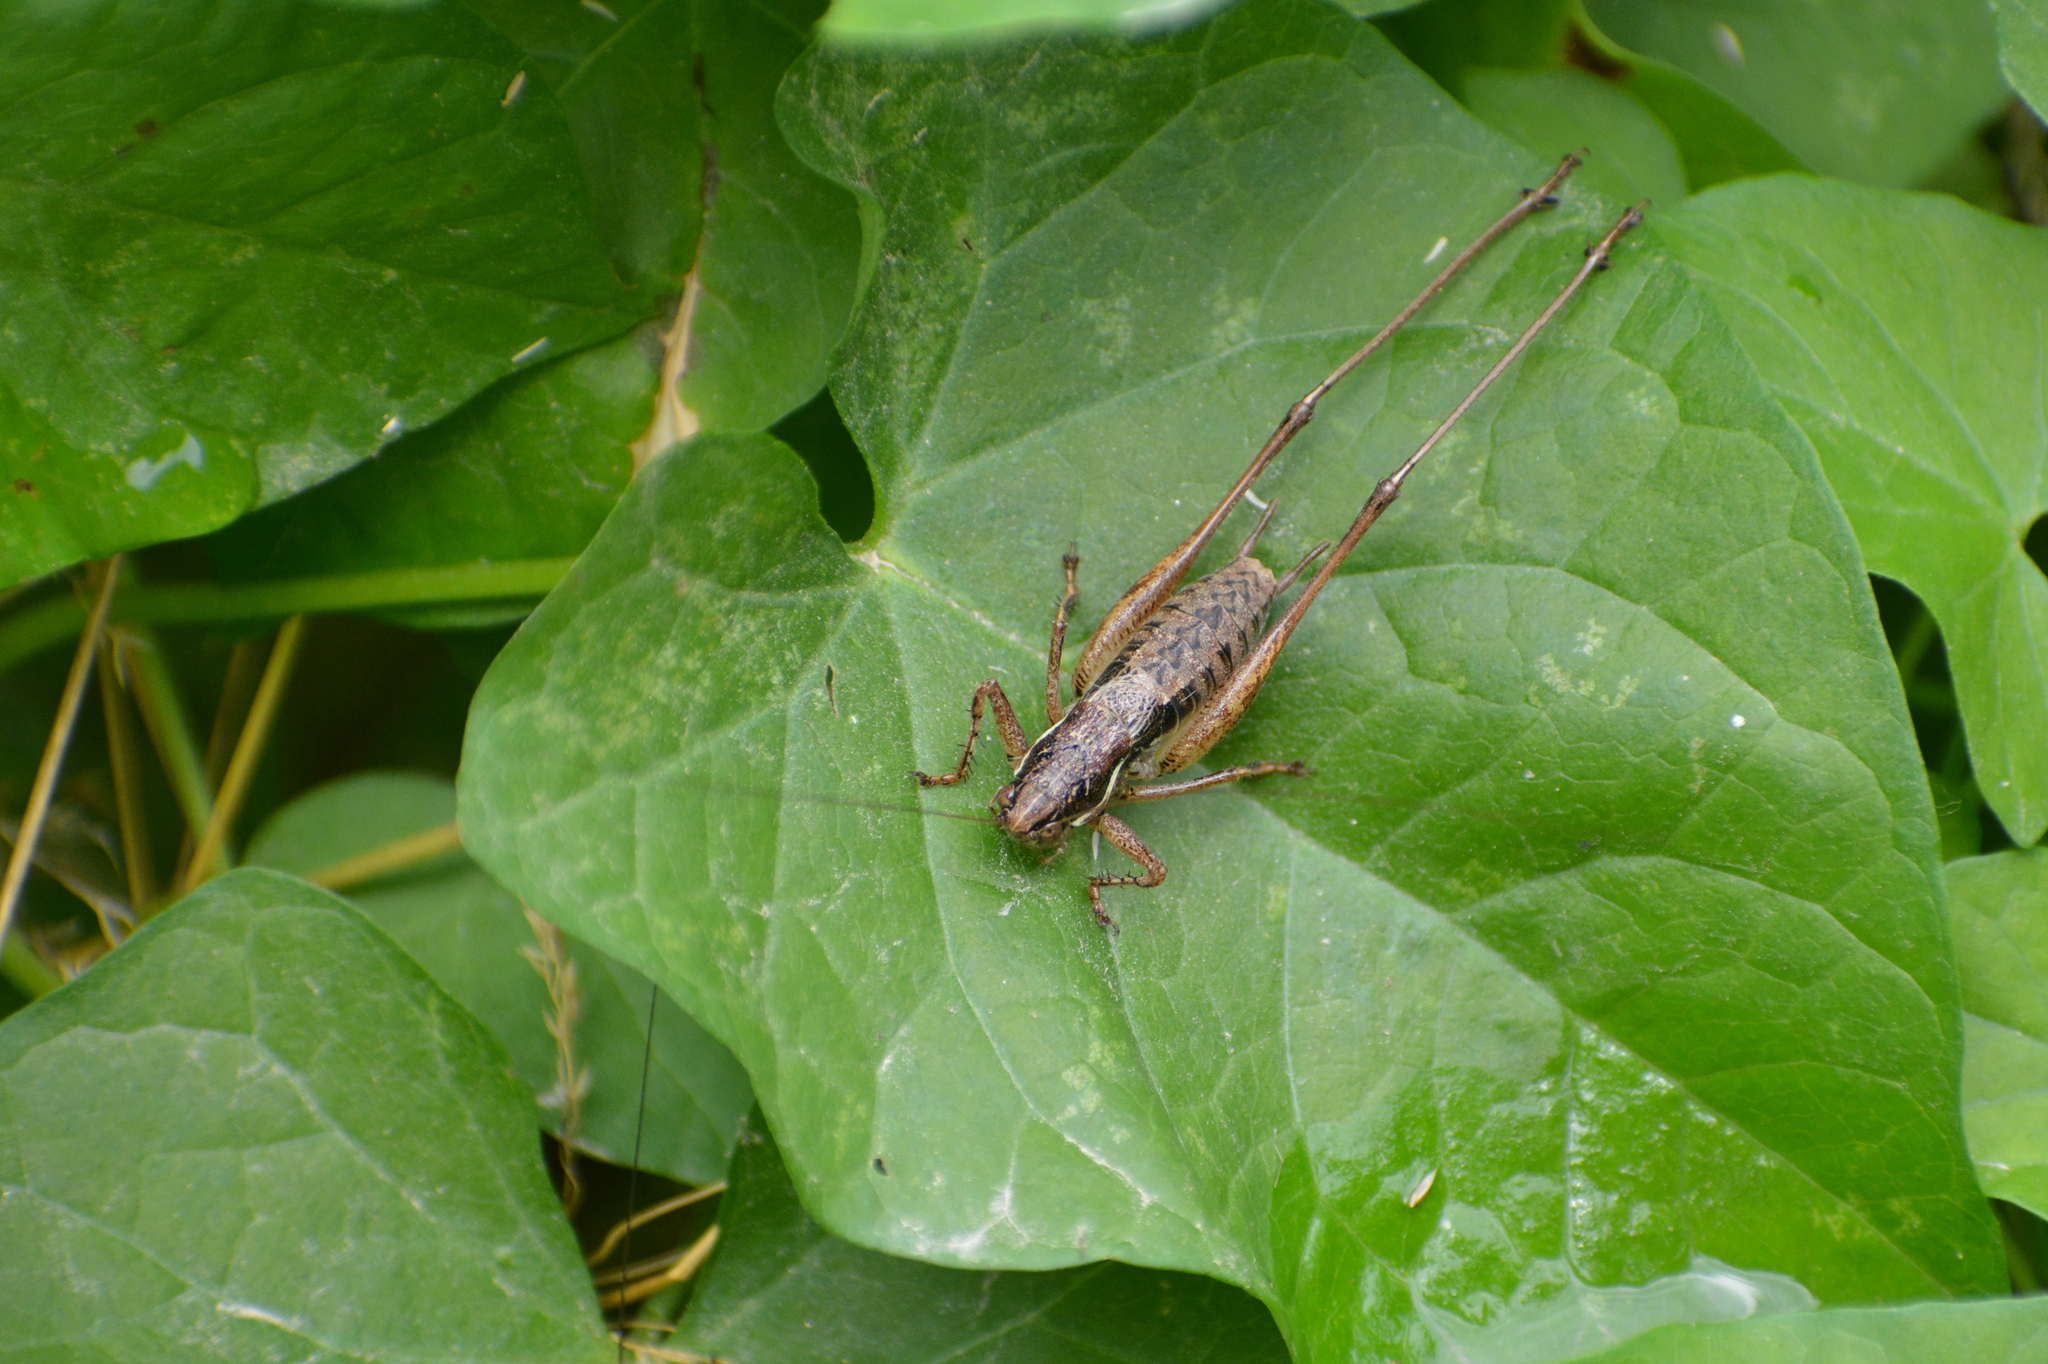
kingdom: Animalia
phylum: Arthropoda
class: Insecta
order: Orthoptera
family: Tettigoniidae
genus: Pachytrachis
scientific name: Pachytrachis gracilis
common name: Graceful bush-cricket
